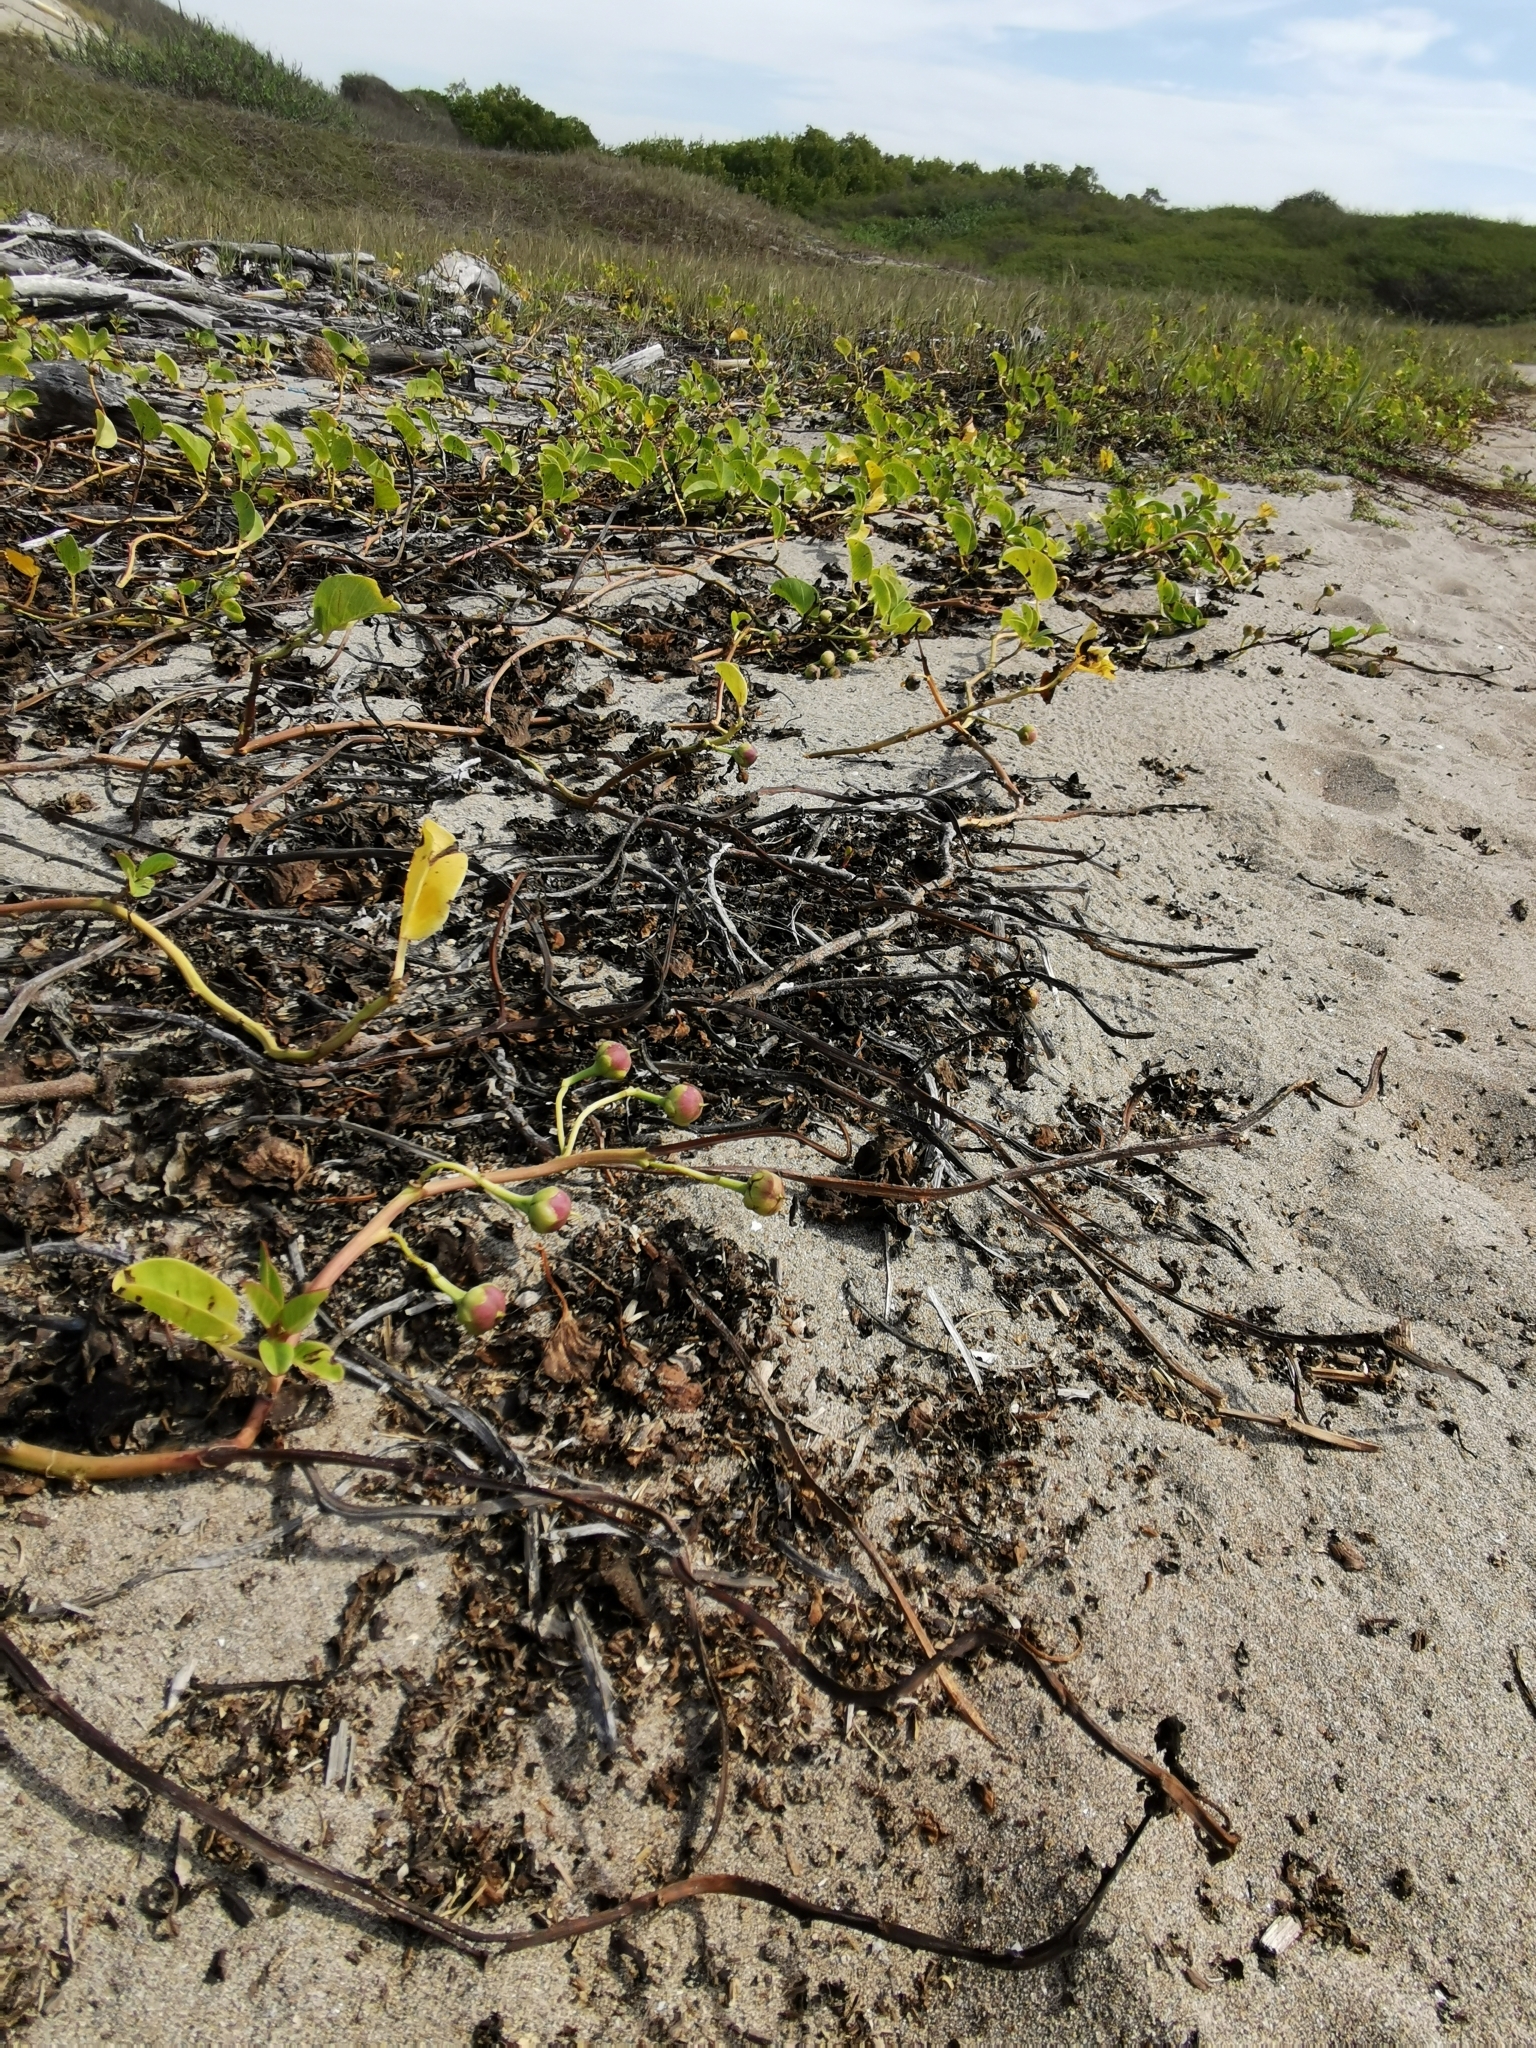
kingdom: Plantae
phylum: Tracheophyta
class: Magnoliopsida
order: Solanales
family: Convolvulaceae
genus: Ipomoea
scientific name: Ipomoea pes-caprae
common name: Beach morning glory
